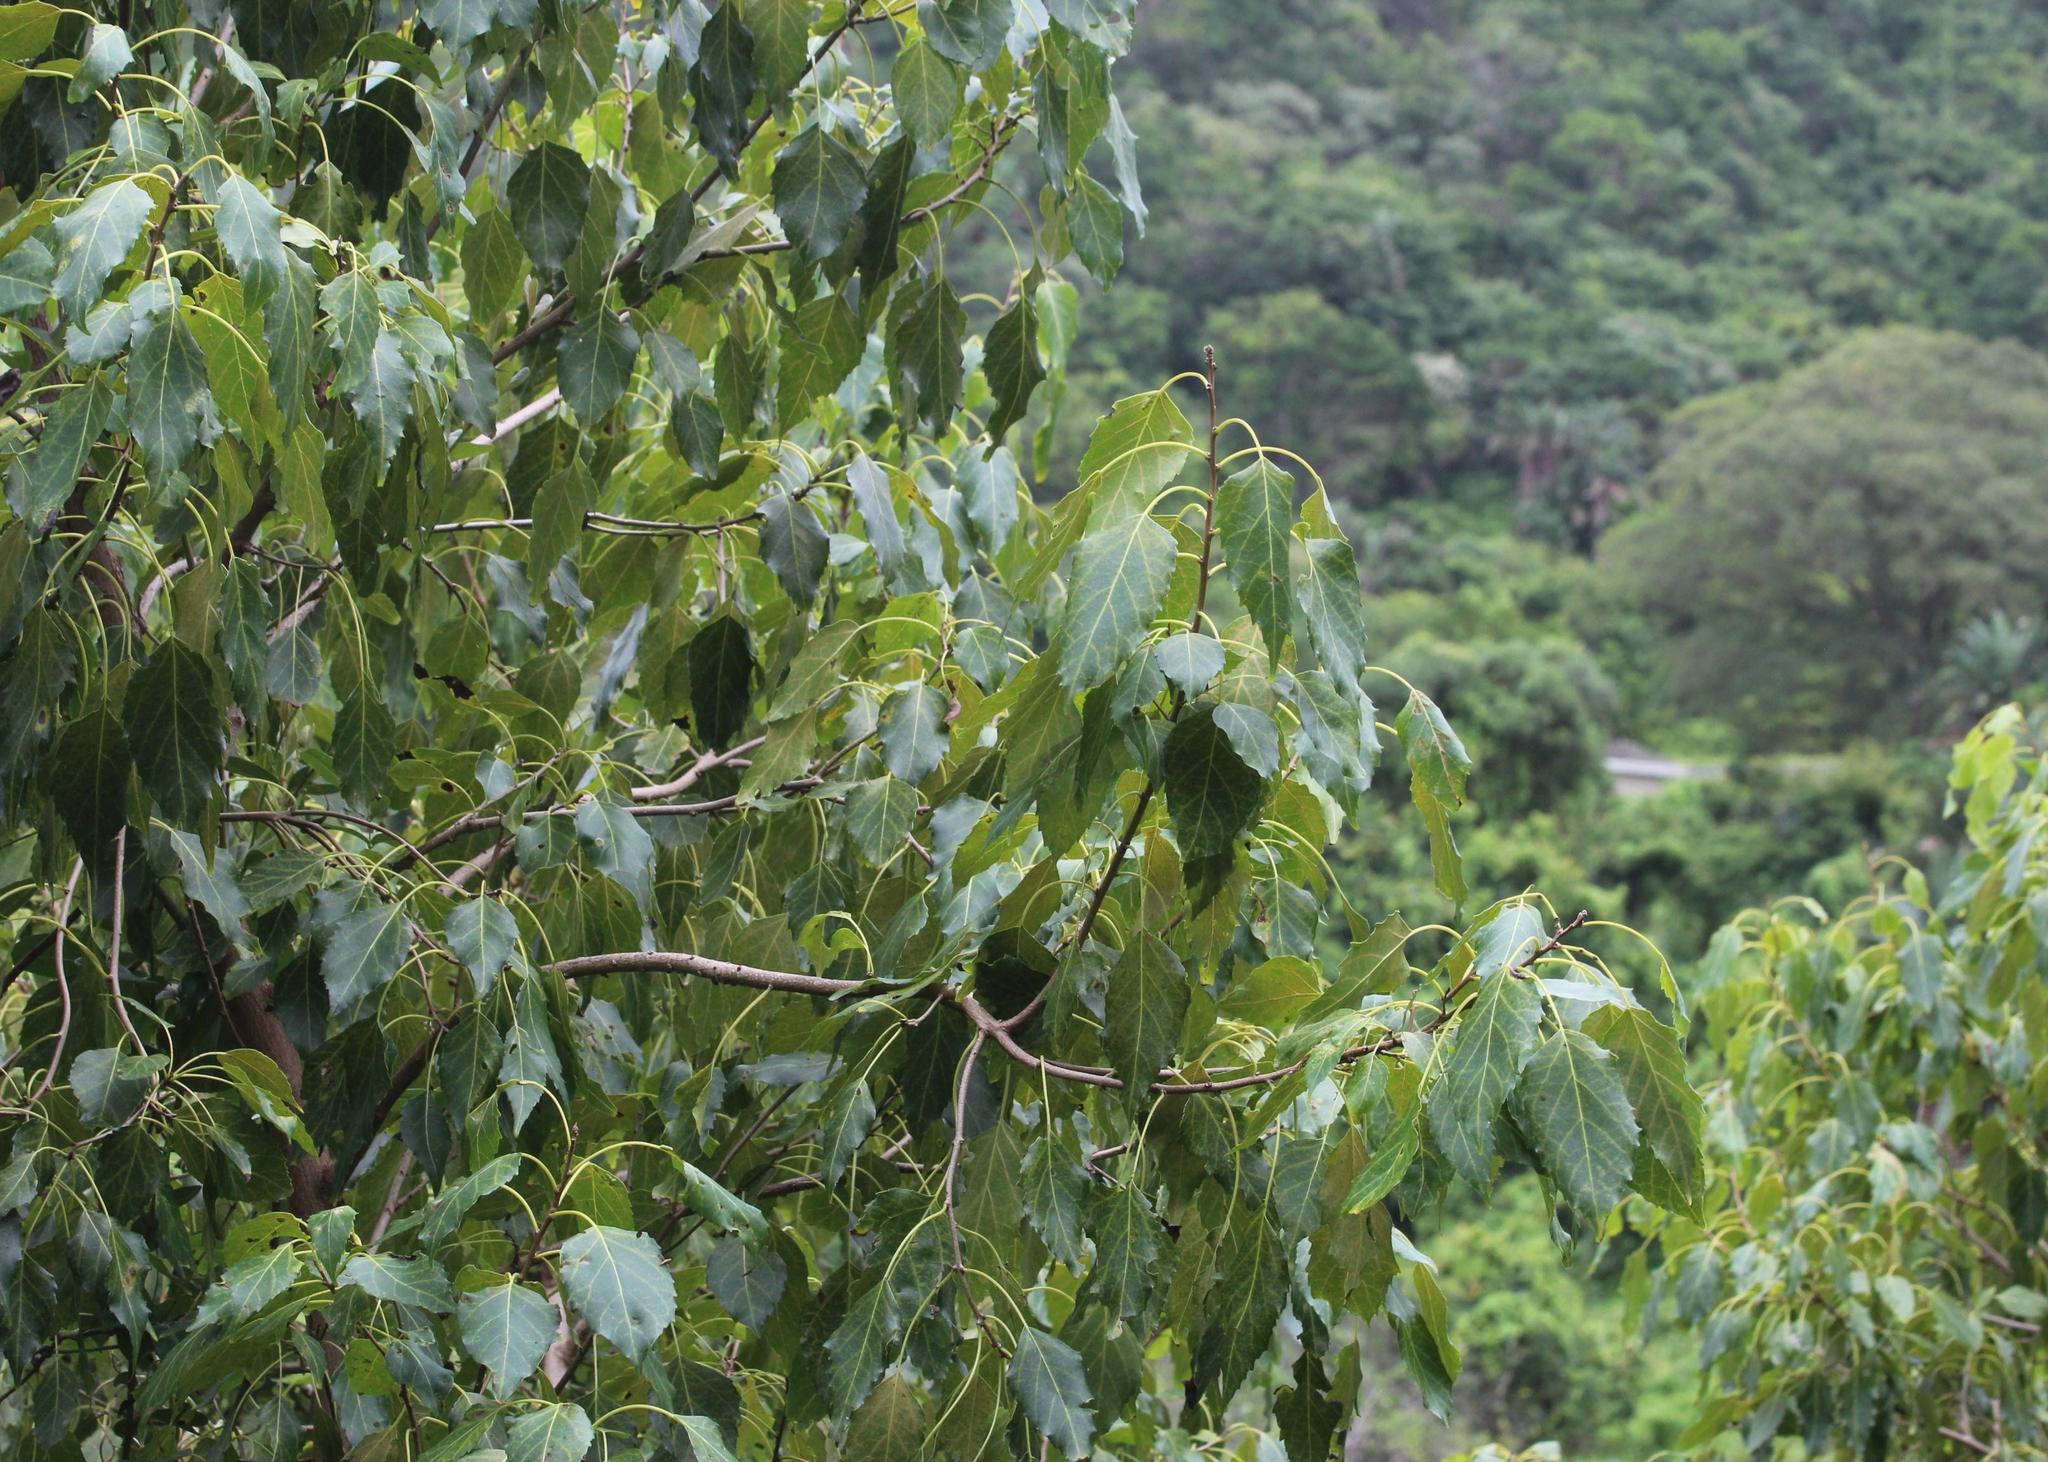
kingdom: Plantae
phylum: Tracheophyta
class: Magnoliopsida
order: Boraginales
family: Cordiaceae
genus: Cordia
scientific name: Cordia caffra
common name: Septee tree
